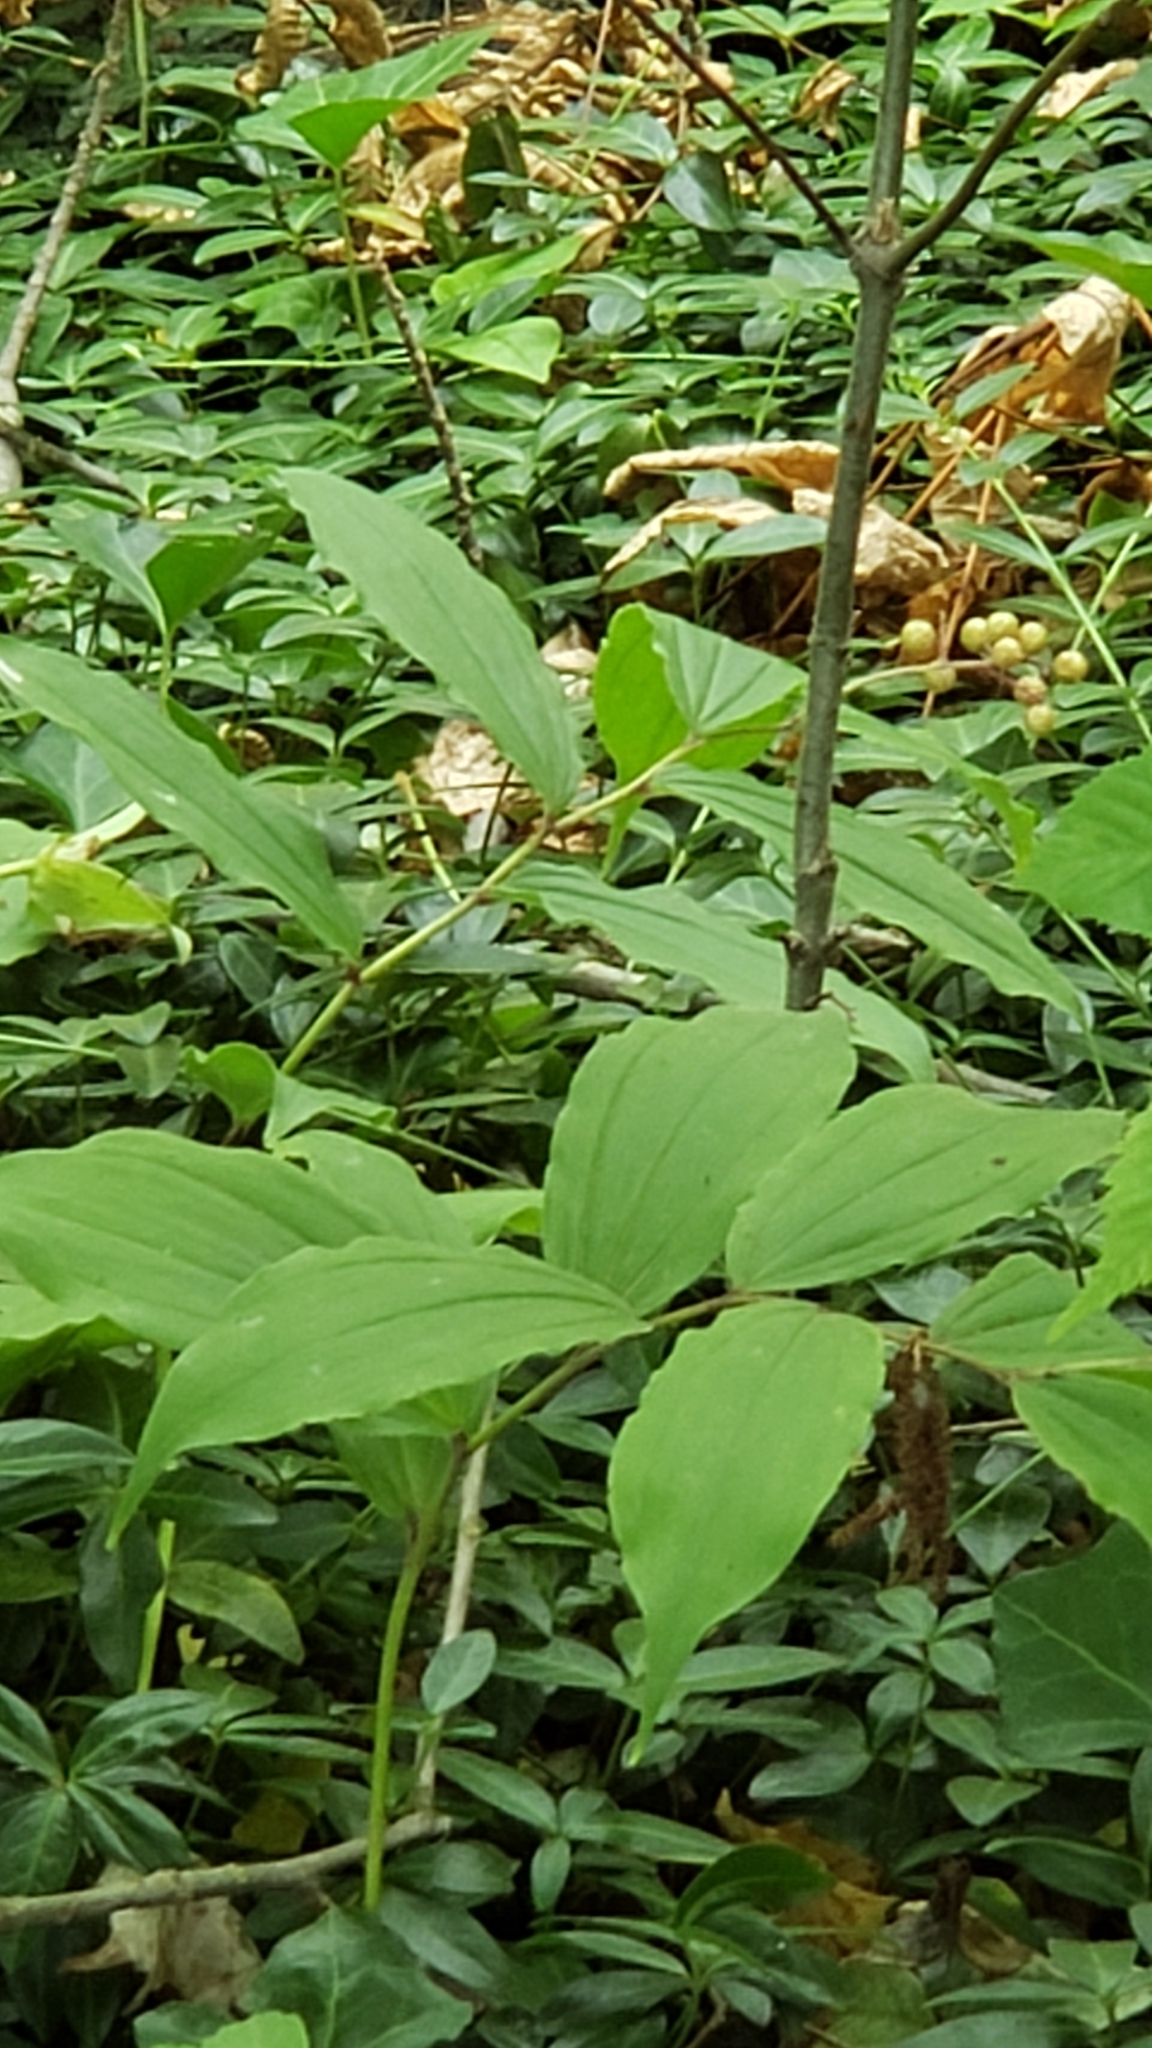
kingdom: Plantae
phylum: Tracheophyta
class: Liliopsida
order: Asparagales
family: Asparagaceae
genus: Maianthemum
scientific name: Maianthemum racemosum
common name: False spikenard
